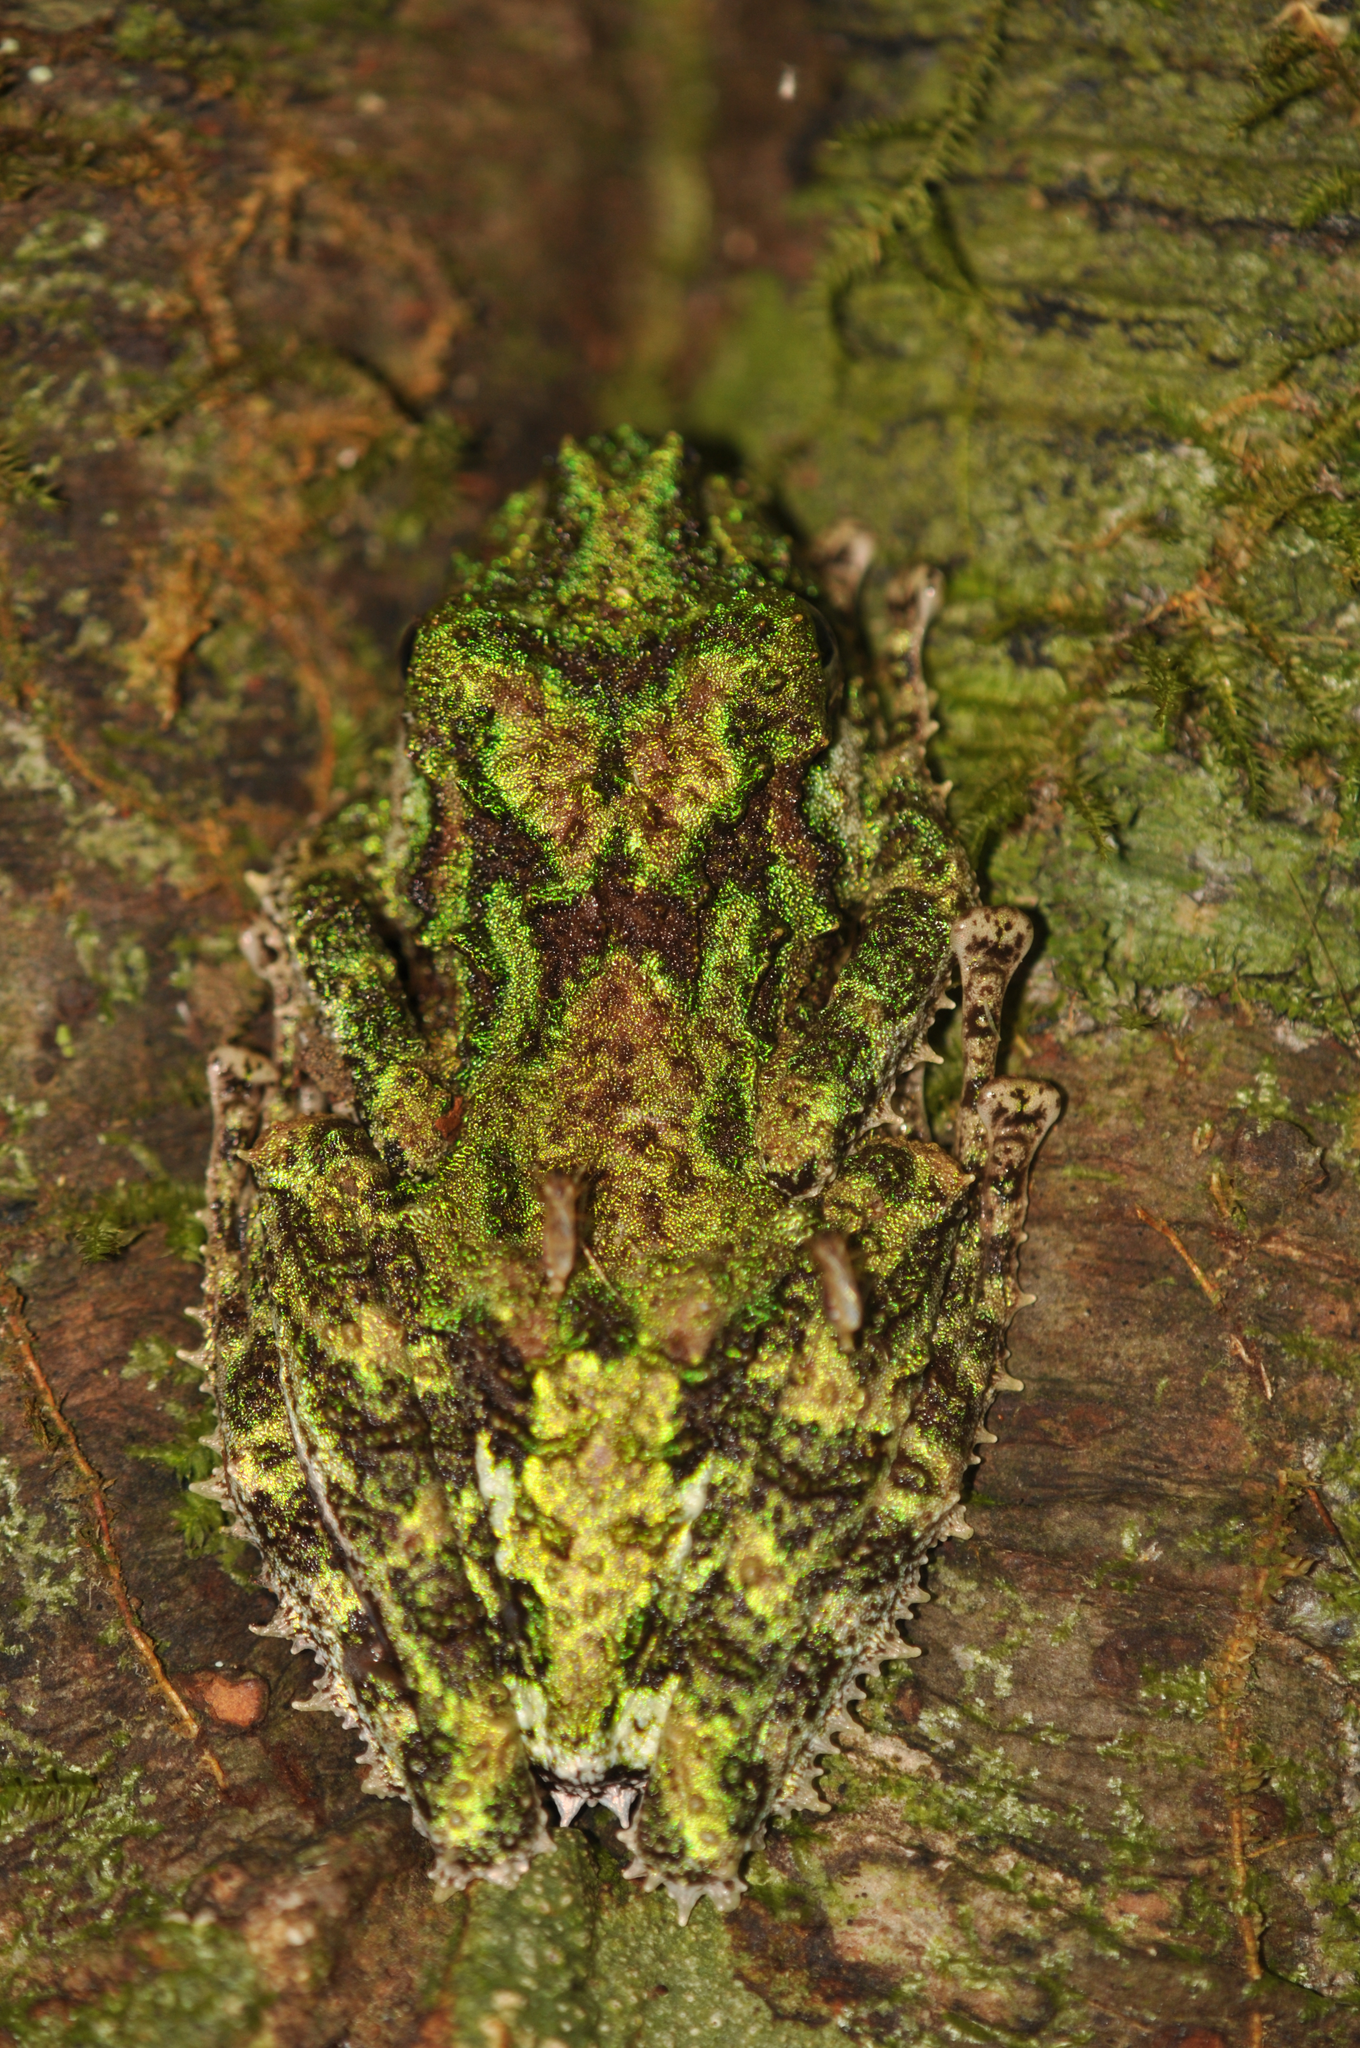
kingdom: Animalia
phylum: Chordata
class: Amphibia
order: Anura
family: Mantellidae
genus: Spinomantis
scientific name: Spinomantis aglavei
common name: Anamalozoatra madagascar frog
